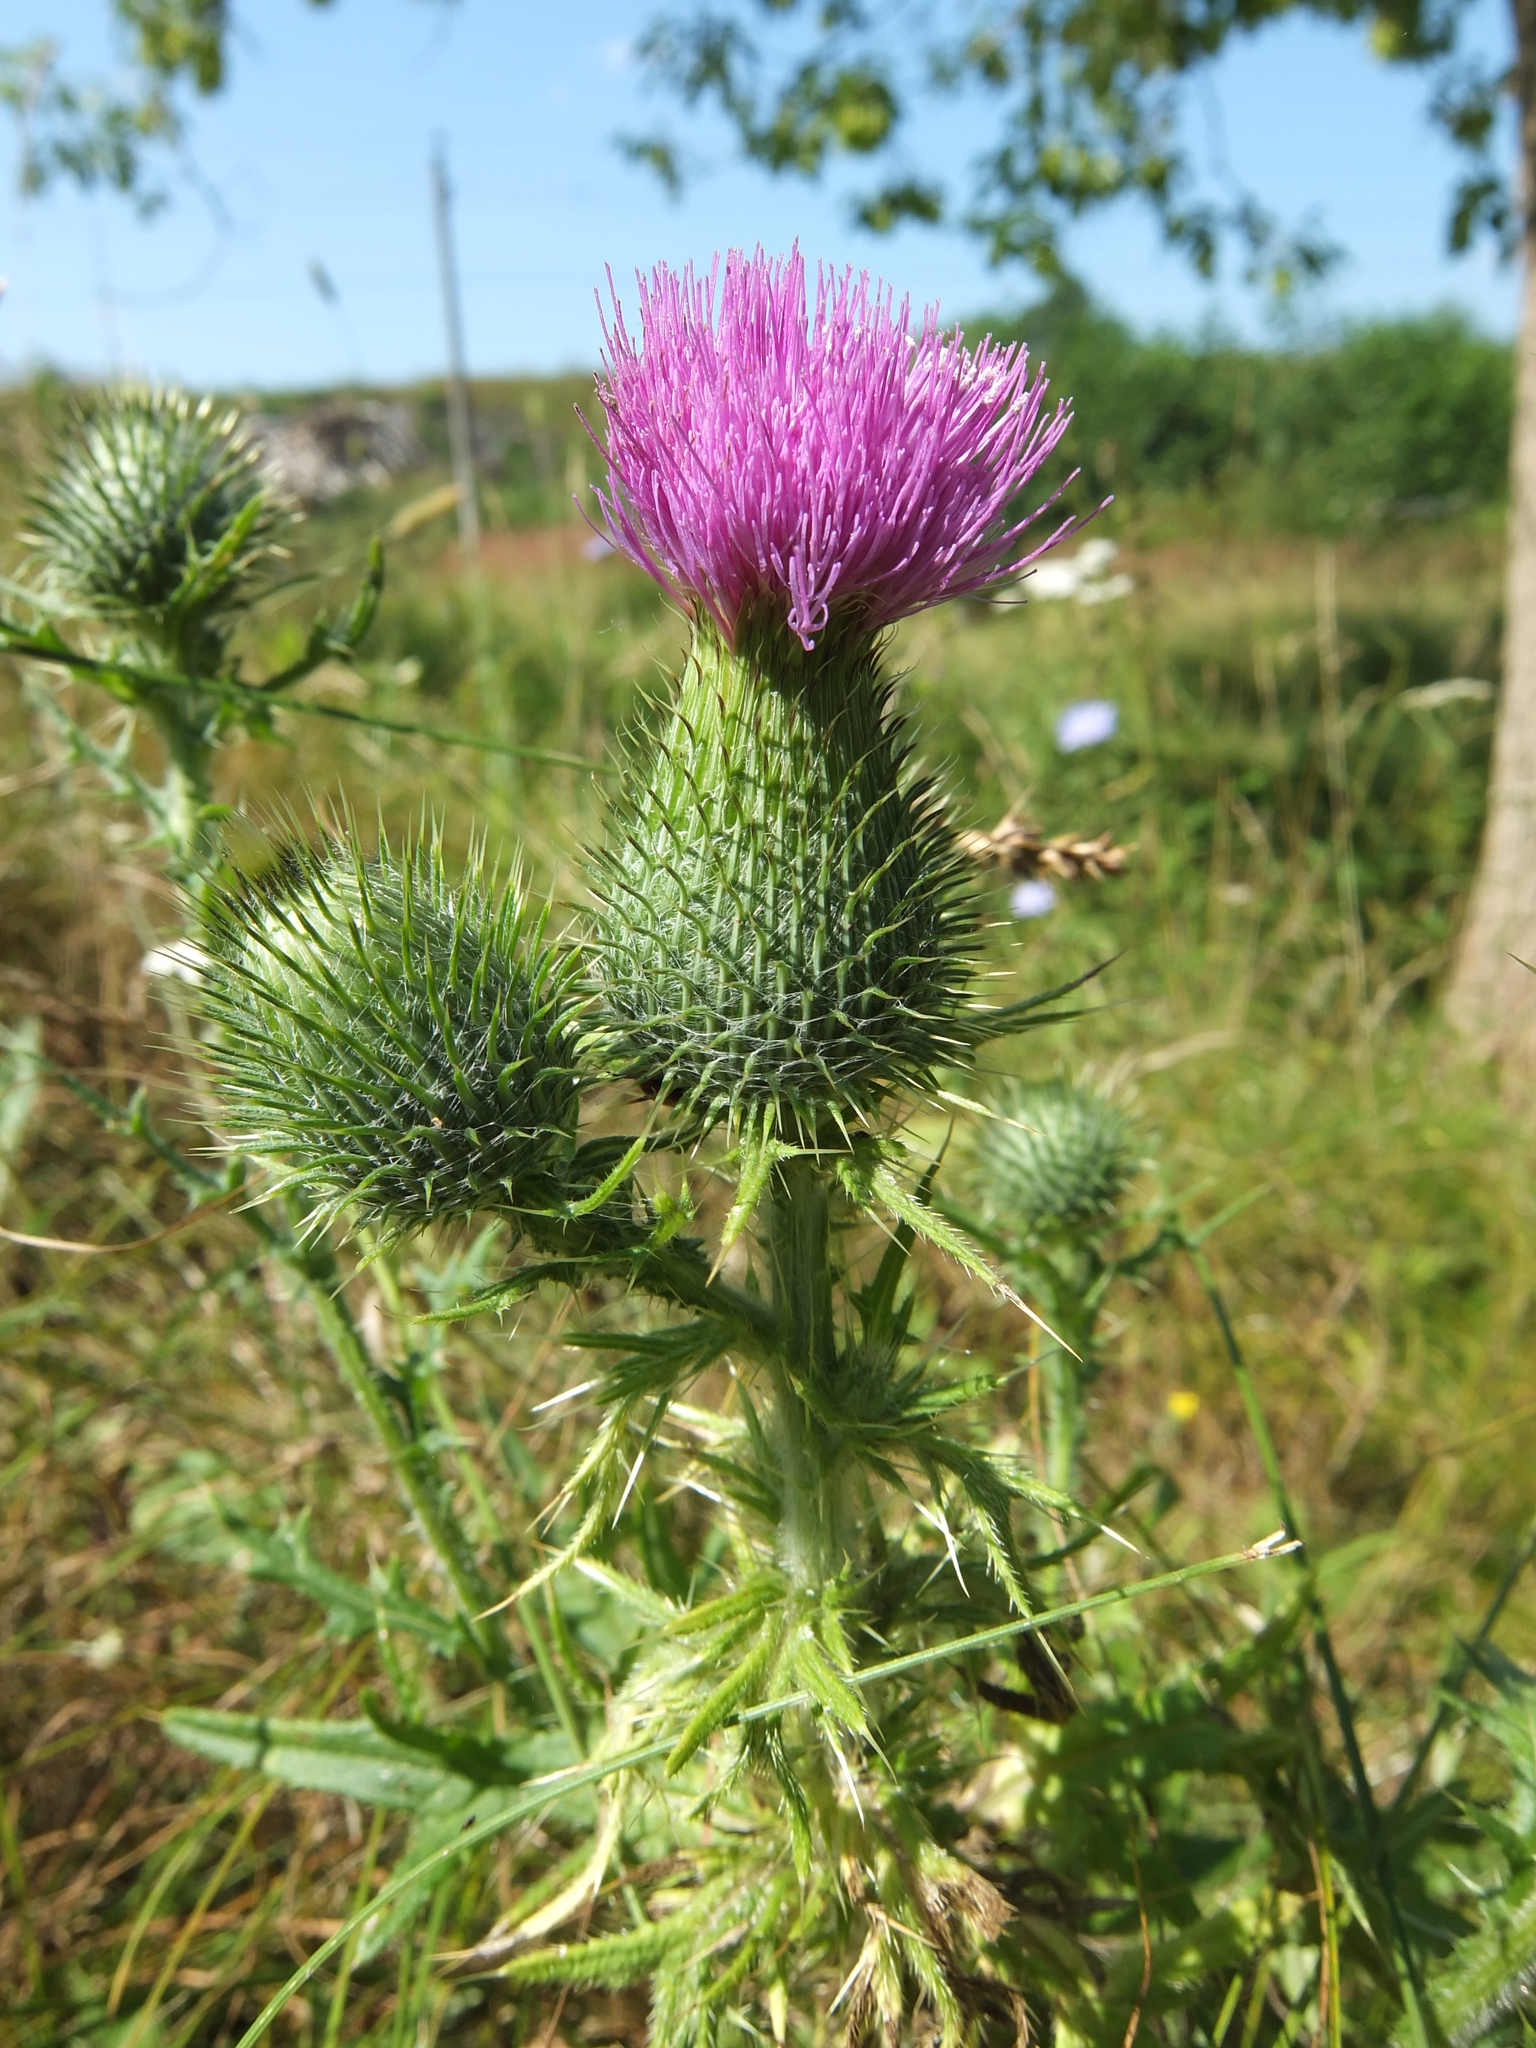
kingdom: Plantae
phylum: Tracheophyta
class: Magnoliopsida
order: Asterales
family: Asteraceae
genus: Cirsium
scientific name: Cirsium vulgare
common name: Bull thistle
